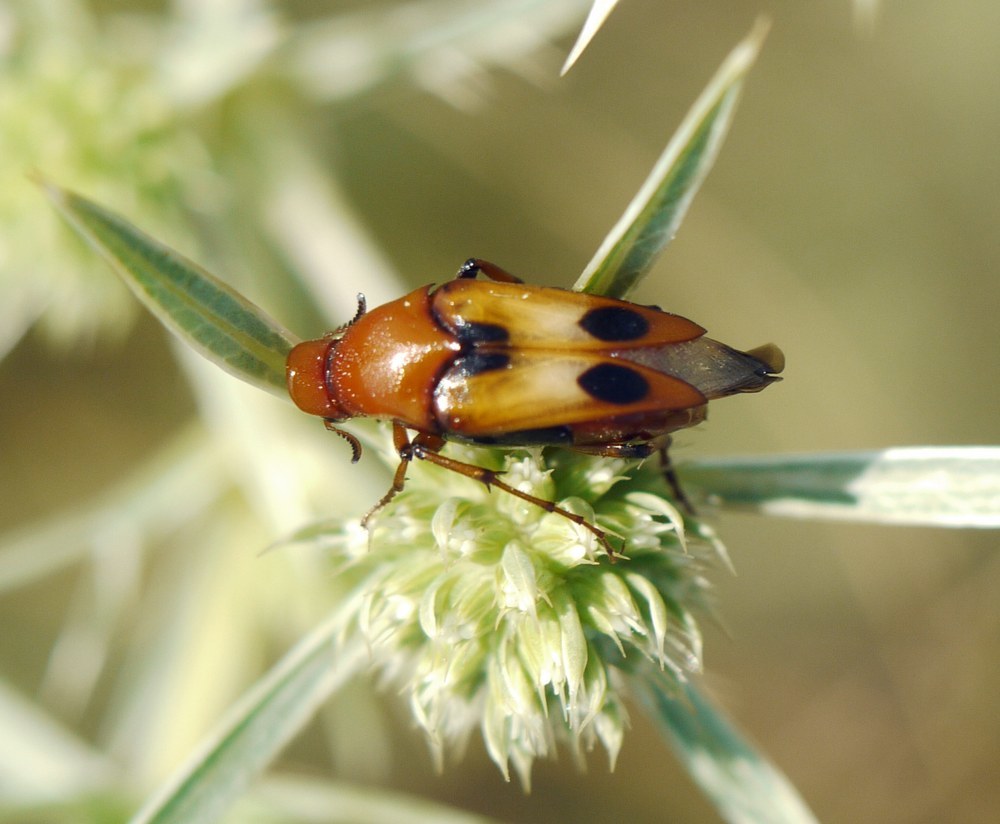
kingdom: Animalia
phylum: Arthropoda
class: Insecta
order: Coleoptera
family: Ripiphoridae
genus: Macrosiagon
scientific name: Macrosiagon bimaculata
